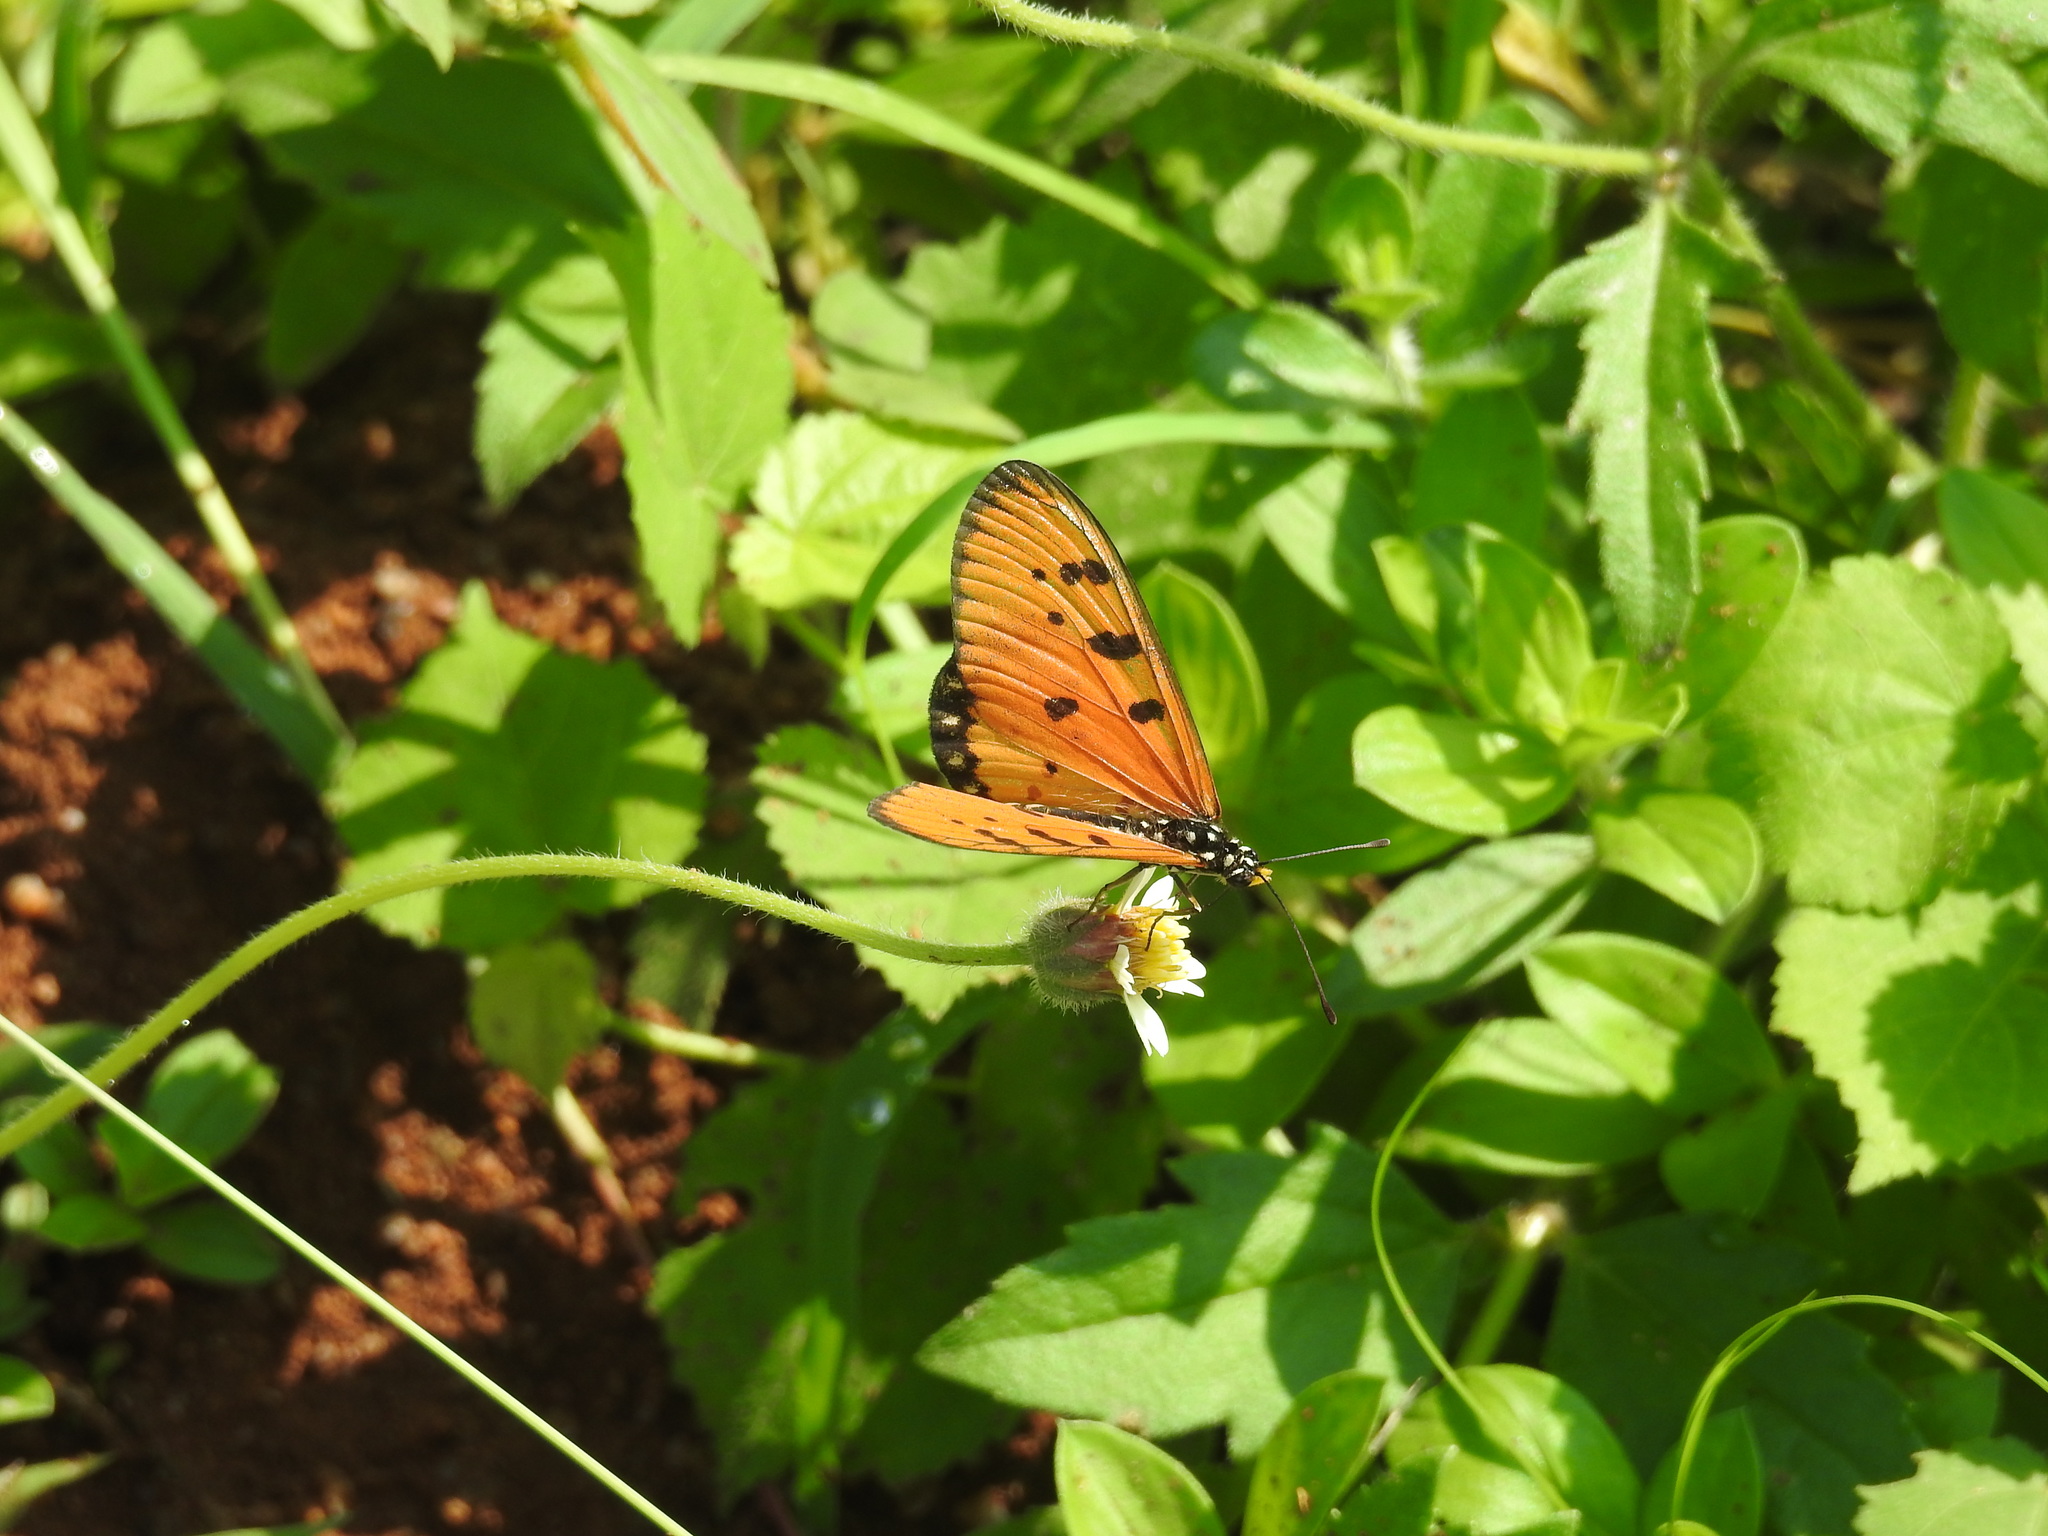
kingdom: Animalia
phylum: Arthropoda
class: Insecta
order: Lepidoptera
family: Nymphalidae
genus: Acraea
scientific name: Acraea terpsicore
